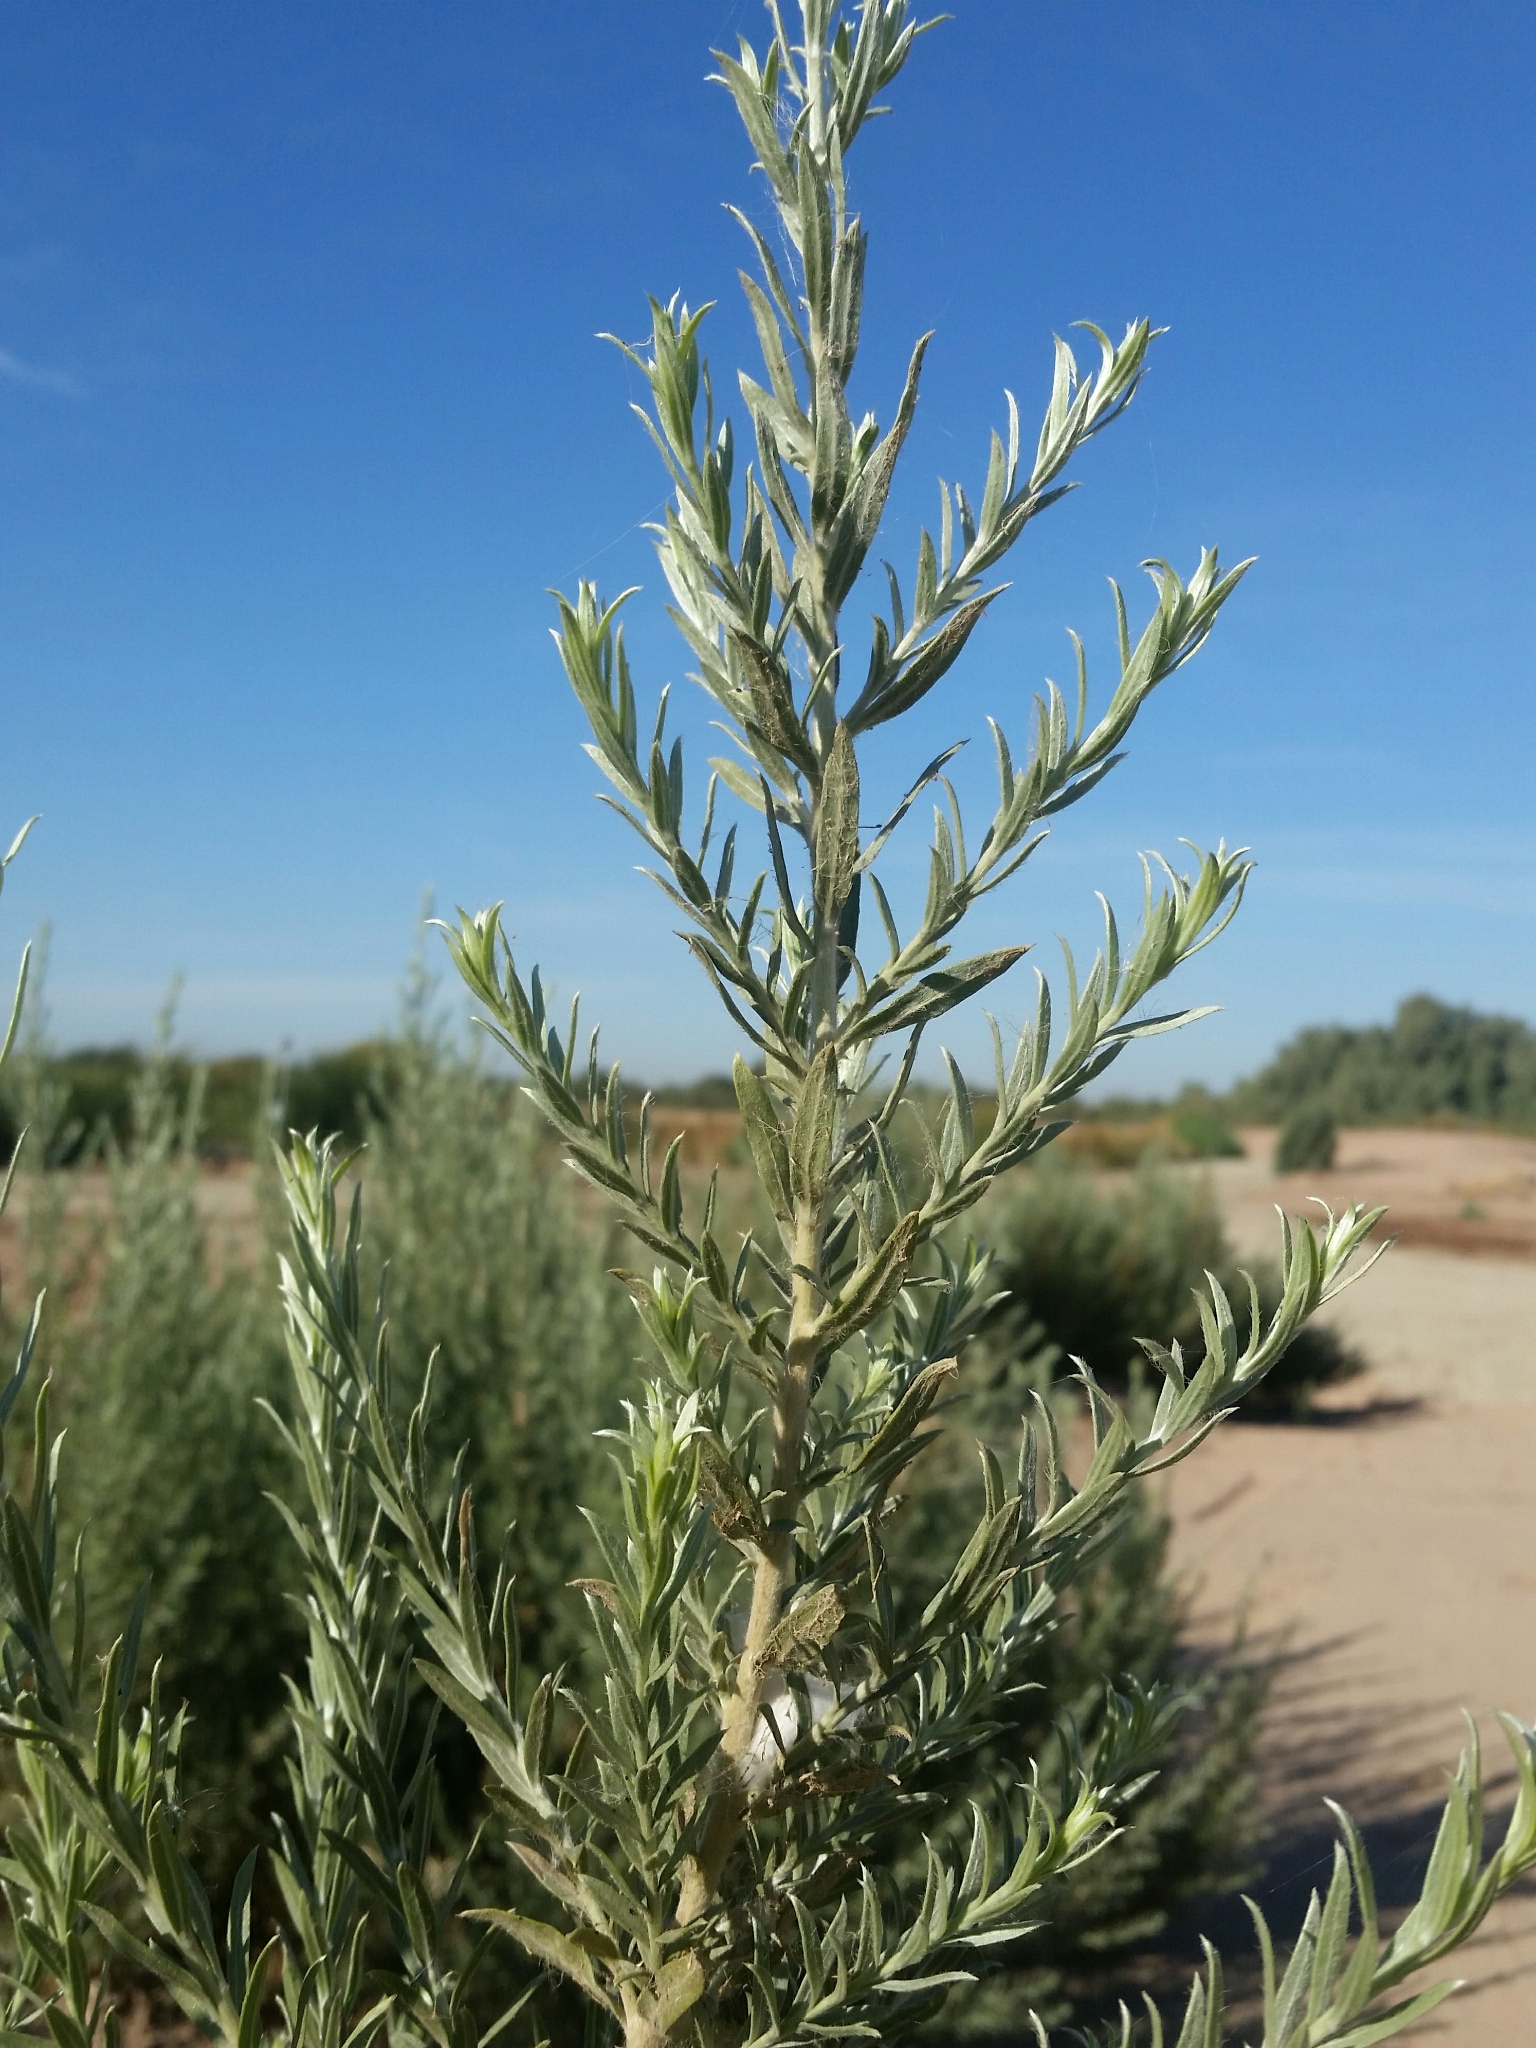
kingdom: Plantae
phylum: Tracheophyta
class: Magnoliopsida
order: Asterales
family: Asteraceae
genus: Pluchea
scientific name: Pluchea sericea
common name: Arrow-weed
